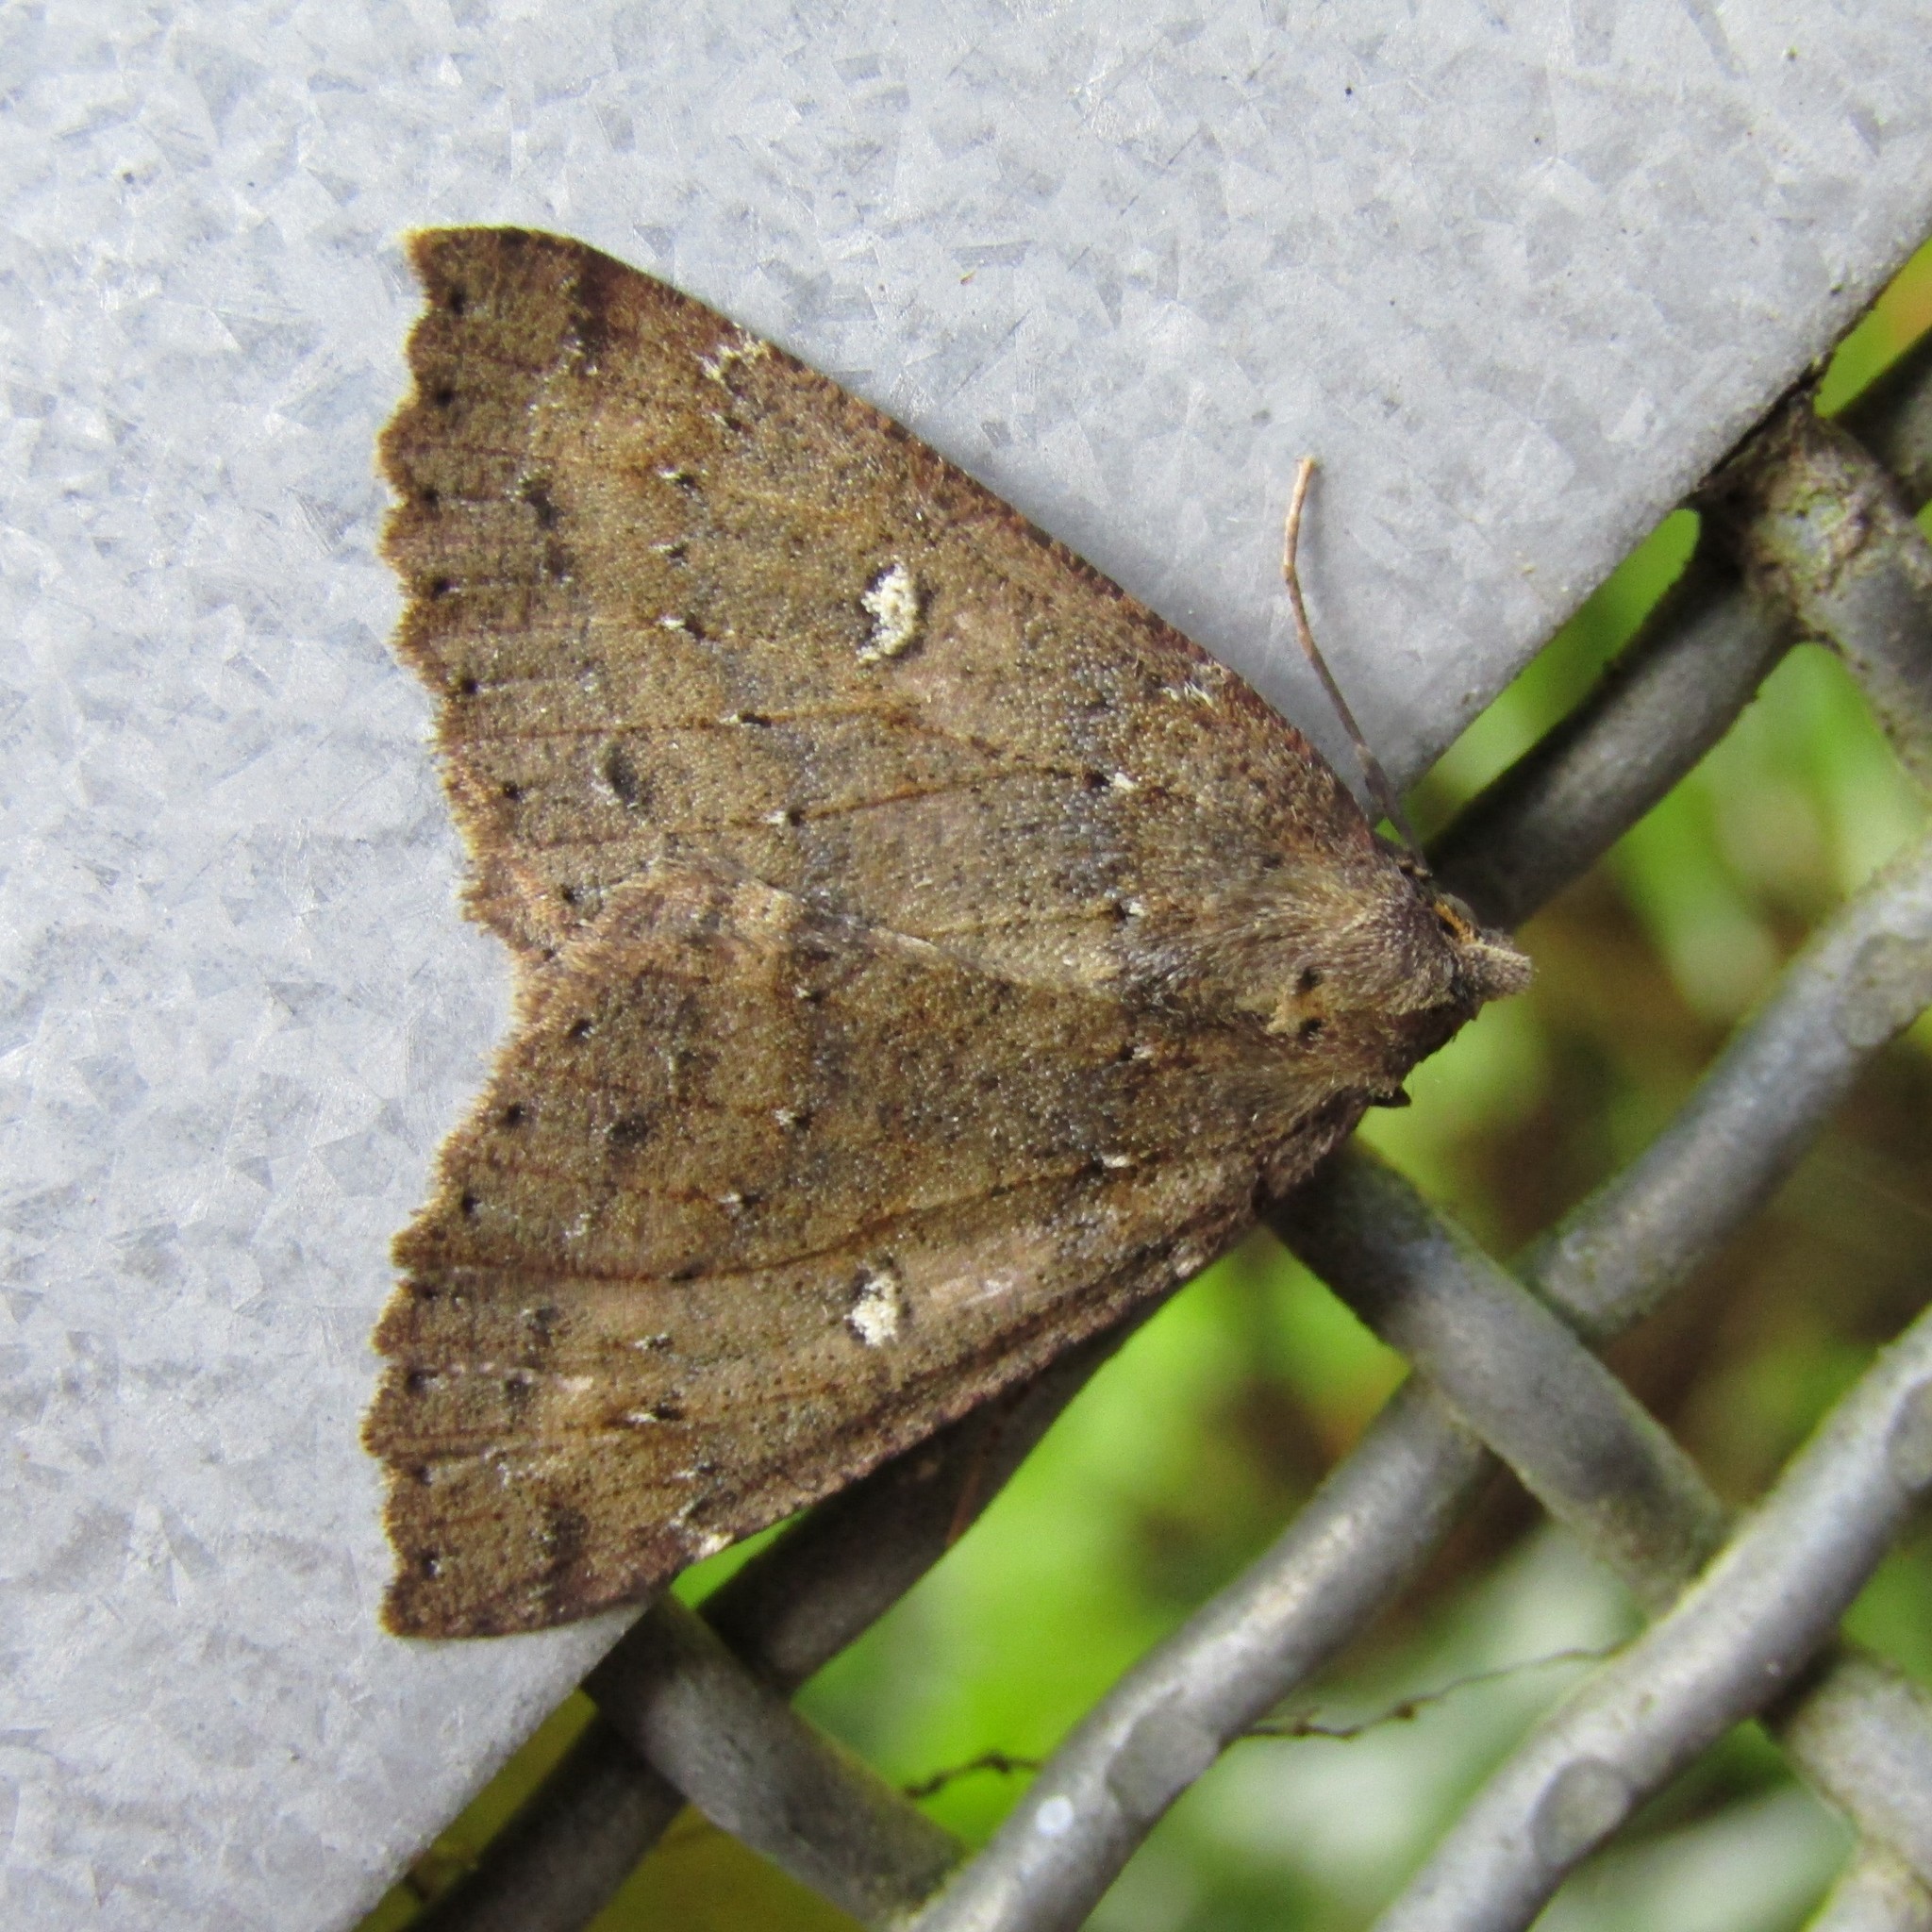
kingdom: Animalia
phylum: Arthropoda
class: Insecta
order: Lepidoptera
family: Geometridae
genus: Cleora
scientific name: Cleora scriptaria
